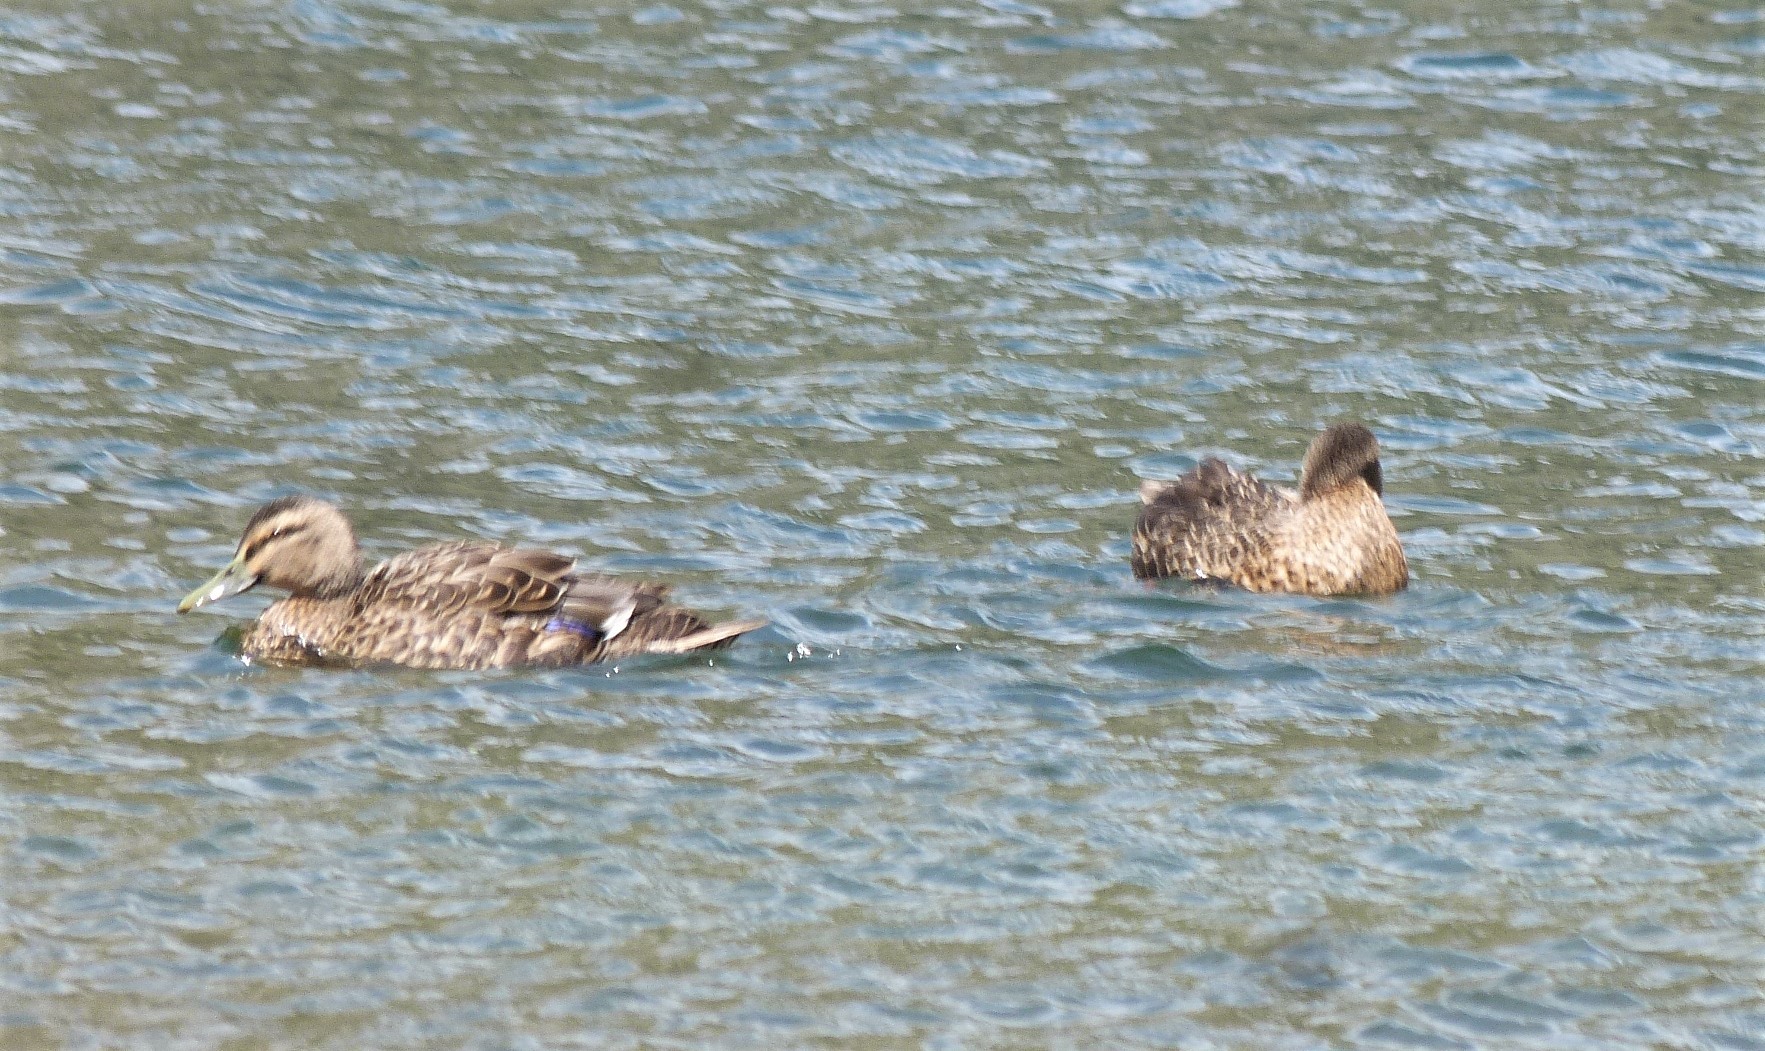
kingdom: Animalia
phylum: Chordata
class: Aves
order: Anseriformes
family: Anatidae
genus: Anas
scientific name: Anas
